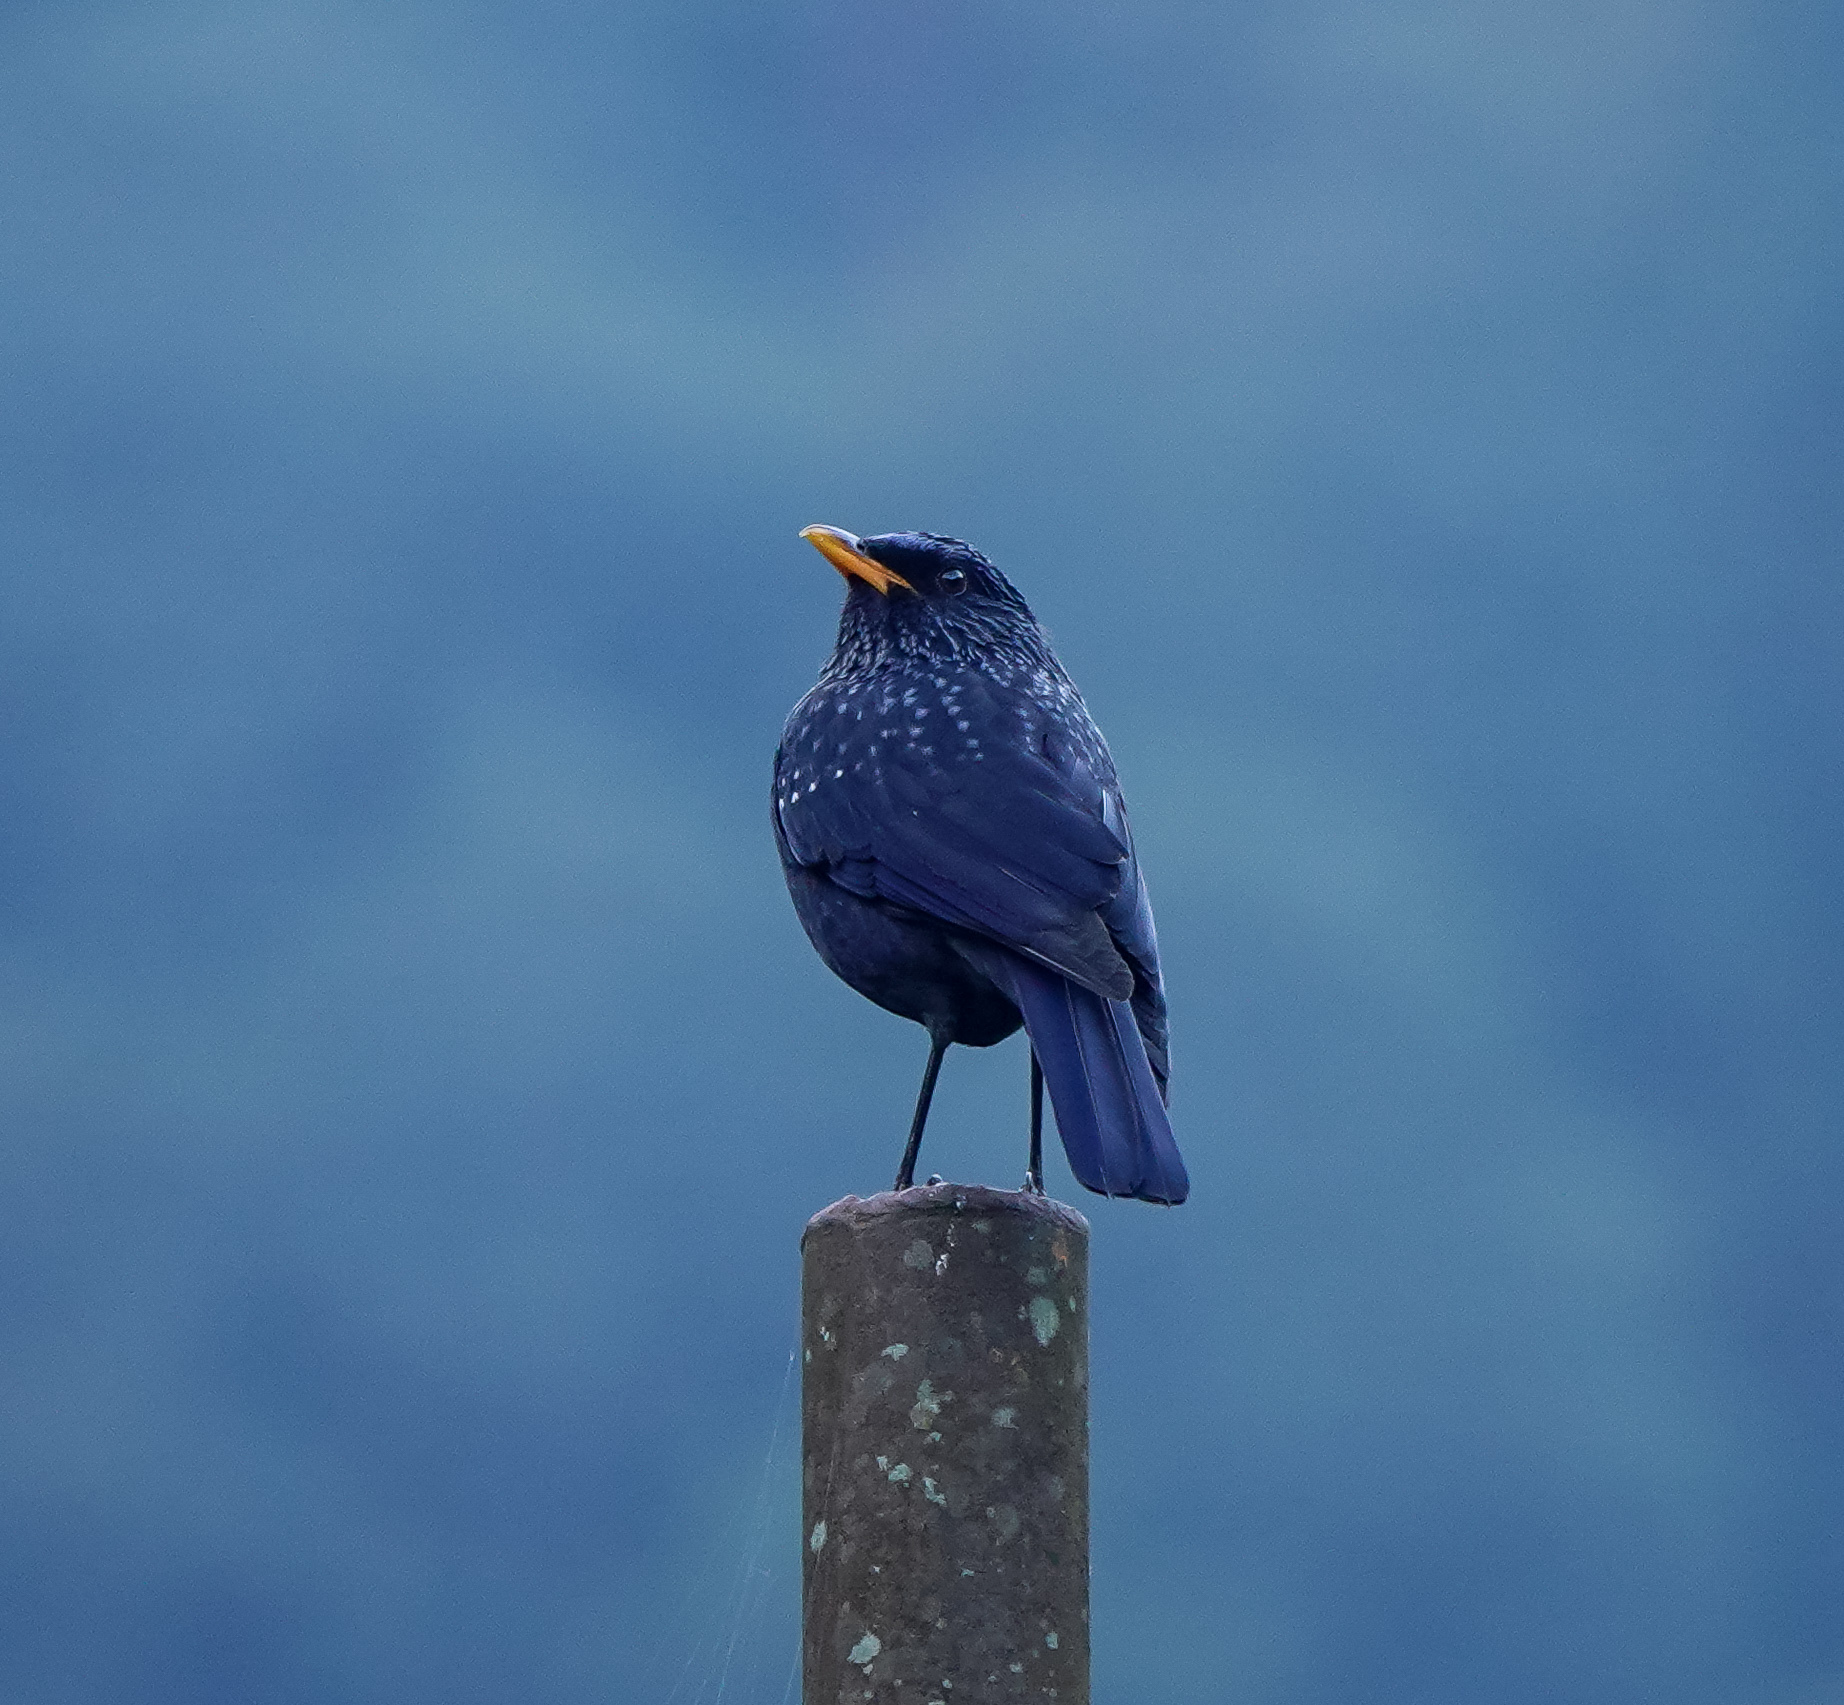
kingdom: Animalia
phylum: Chordata
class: Aves
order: Passeriformes
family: Muscicapidae
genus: Myophonus
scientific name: Myophonus caeruleus
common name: Blue whistling-thrush
